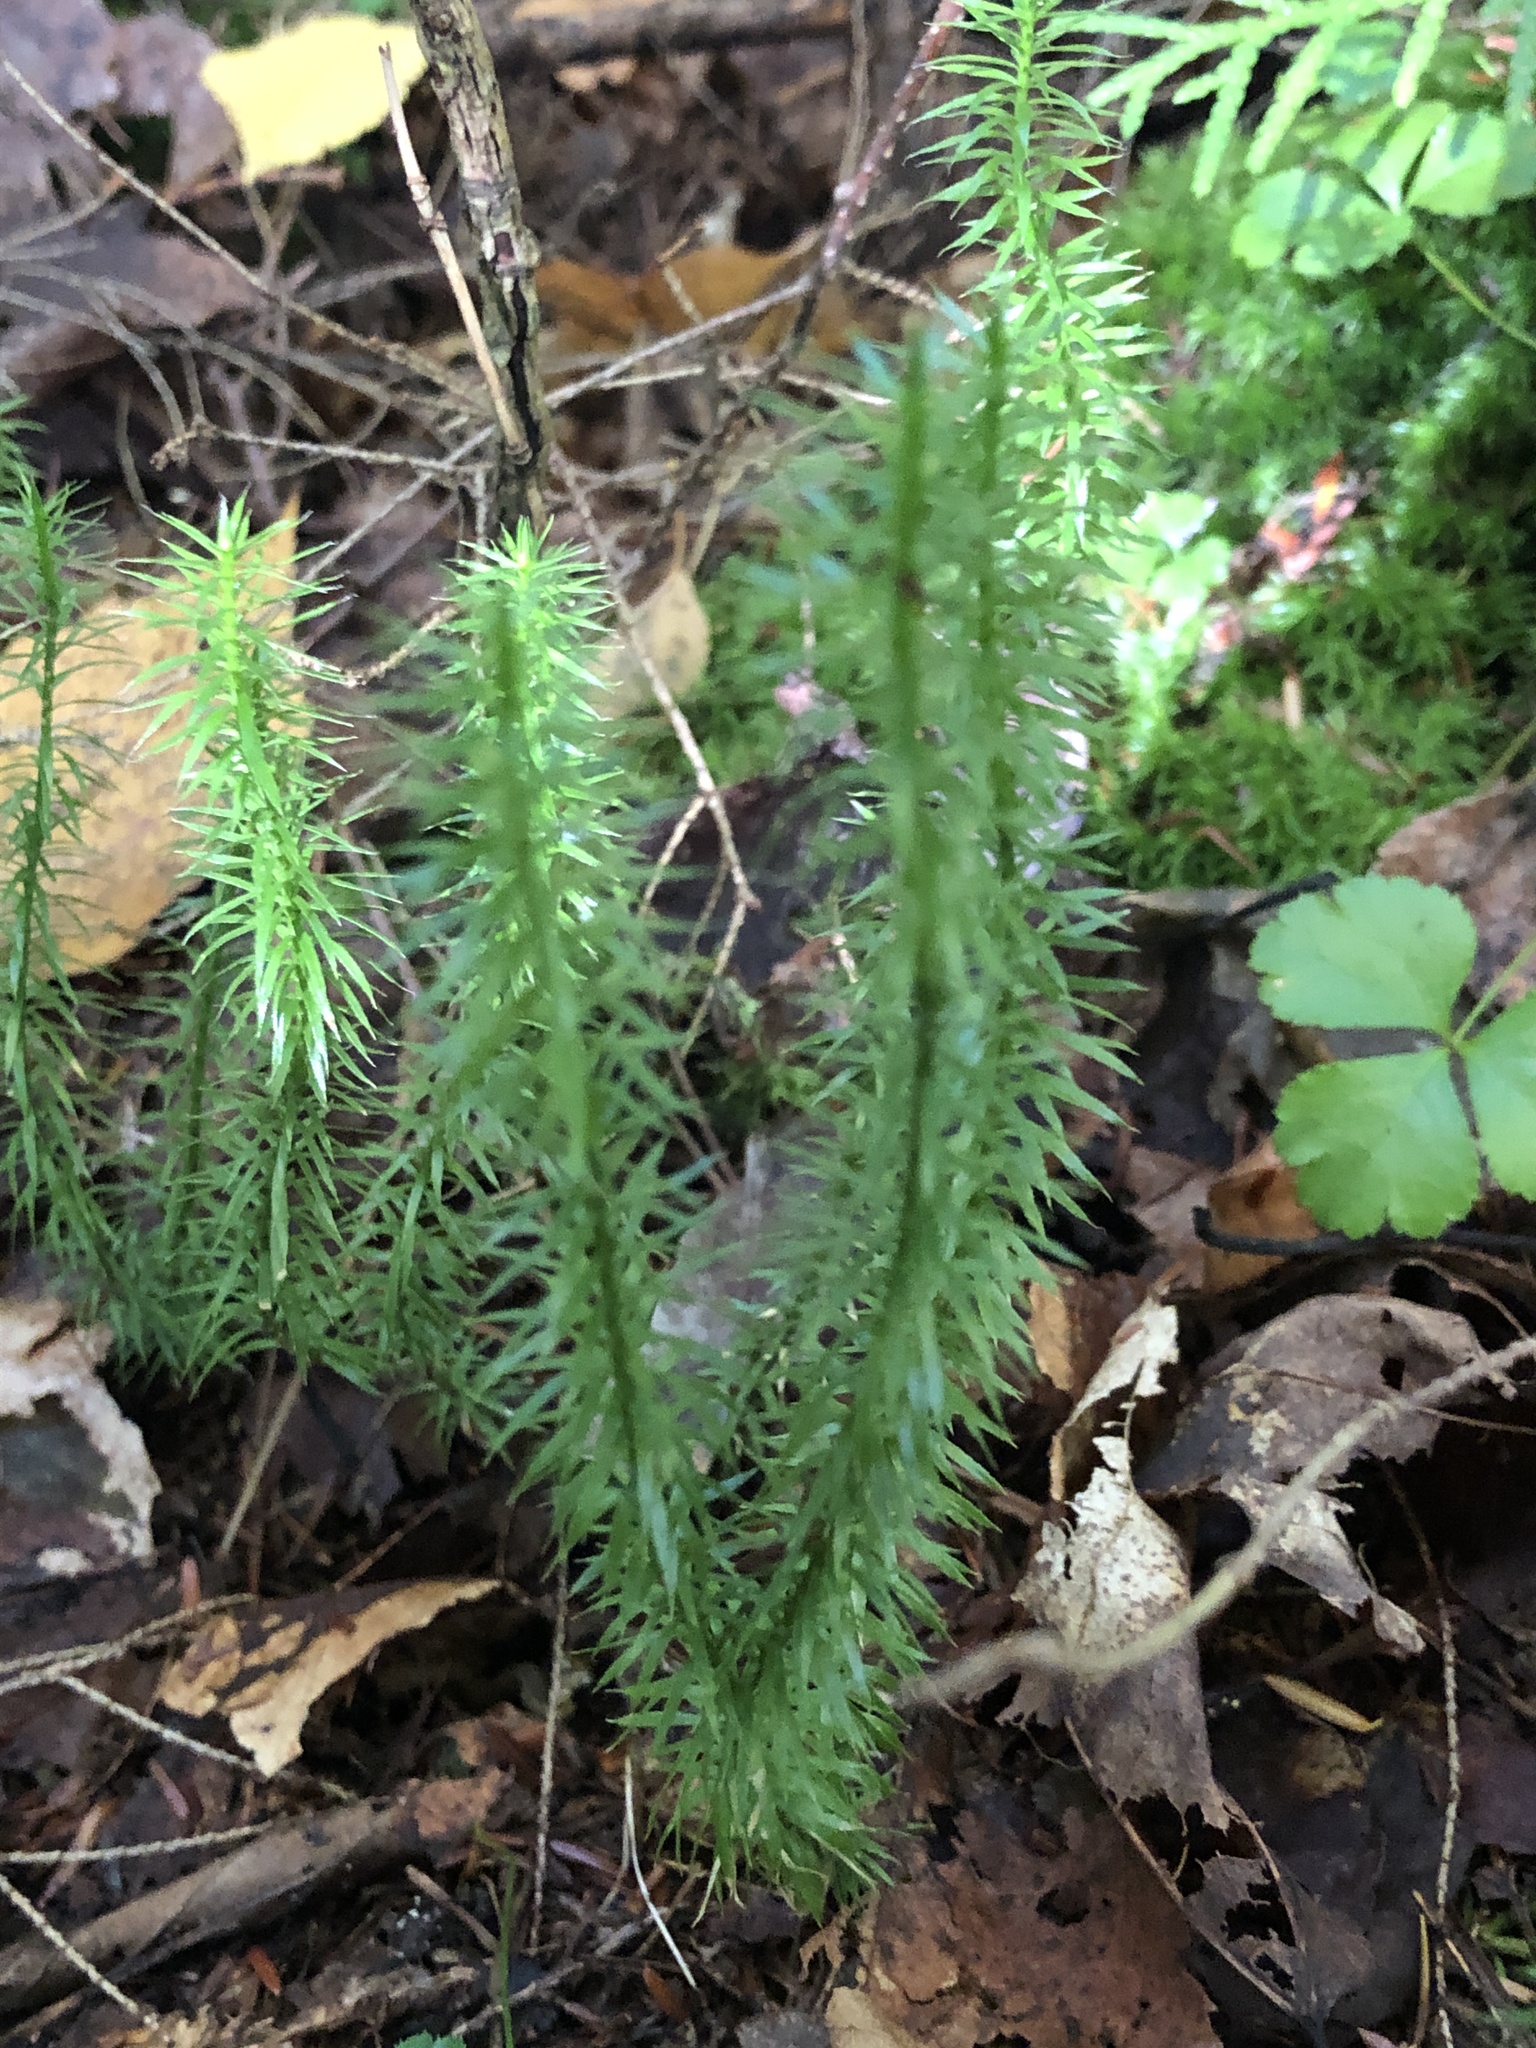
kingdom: Plantae
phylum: Tracheophyta
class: Lycopodiopsida
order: Lycopodiales
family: Lycopodiaceae
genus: Spinulum
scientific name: Spinulum annotinum
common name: Interrupted club-moss
